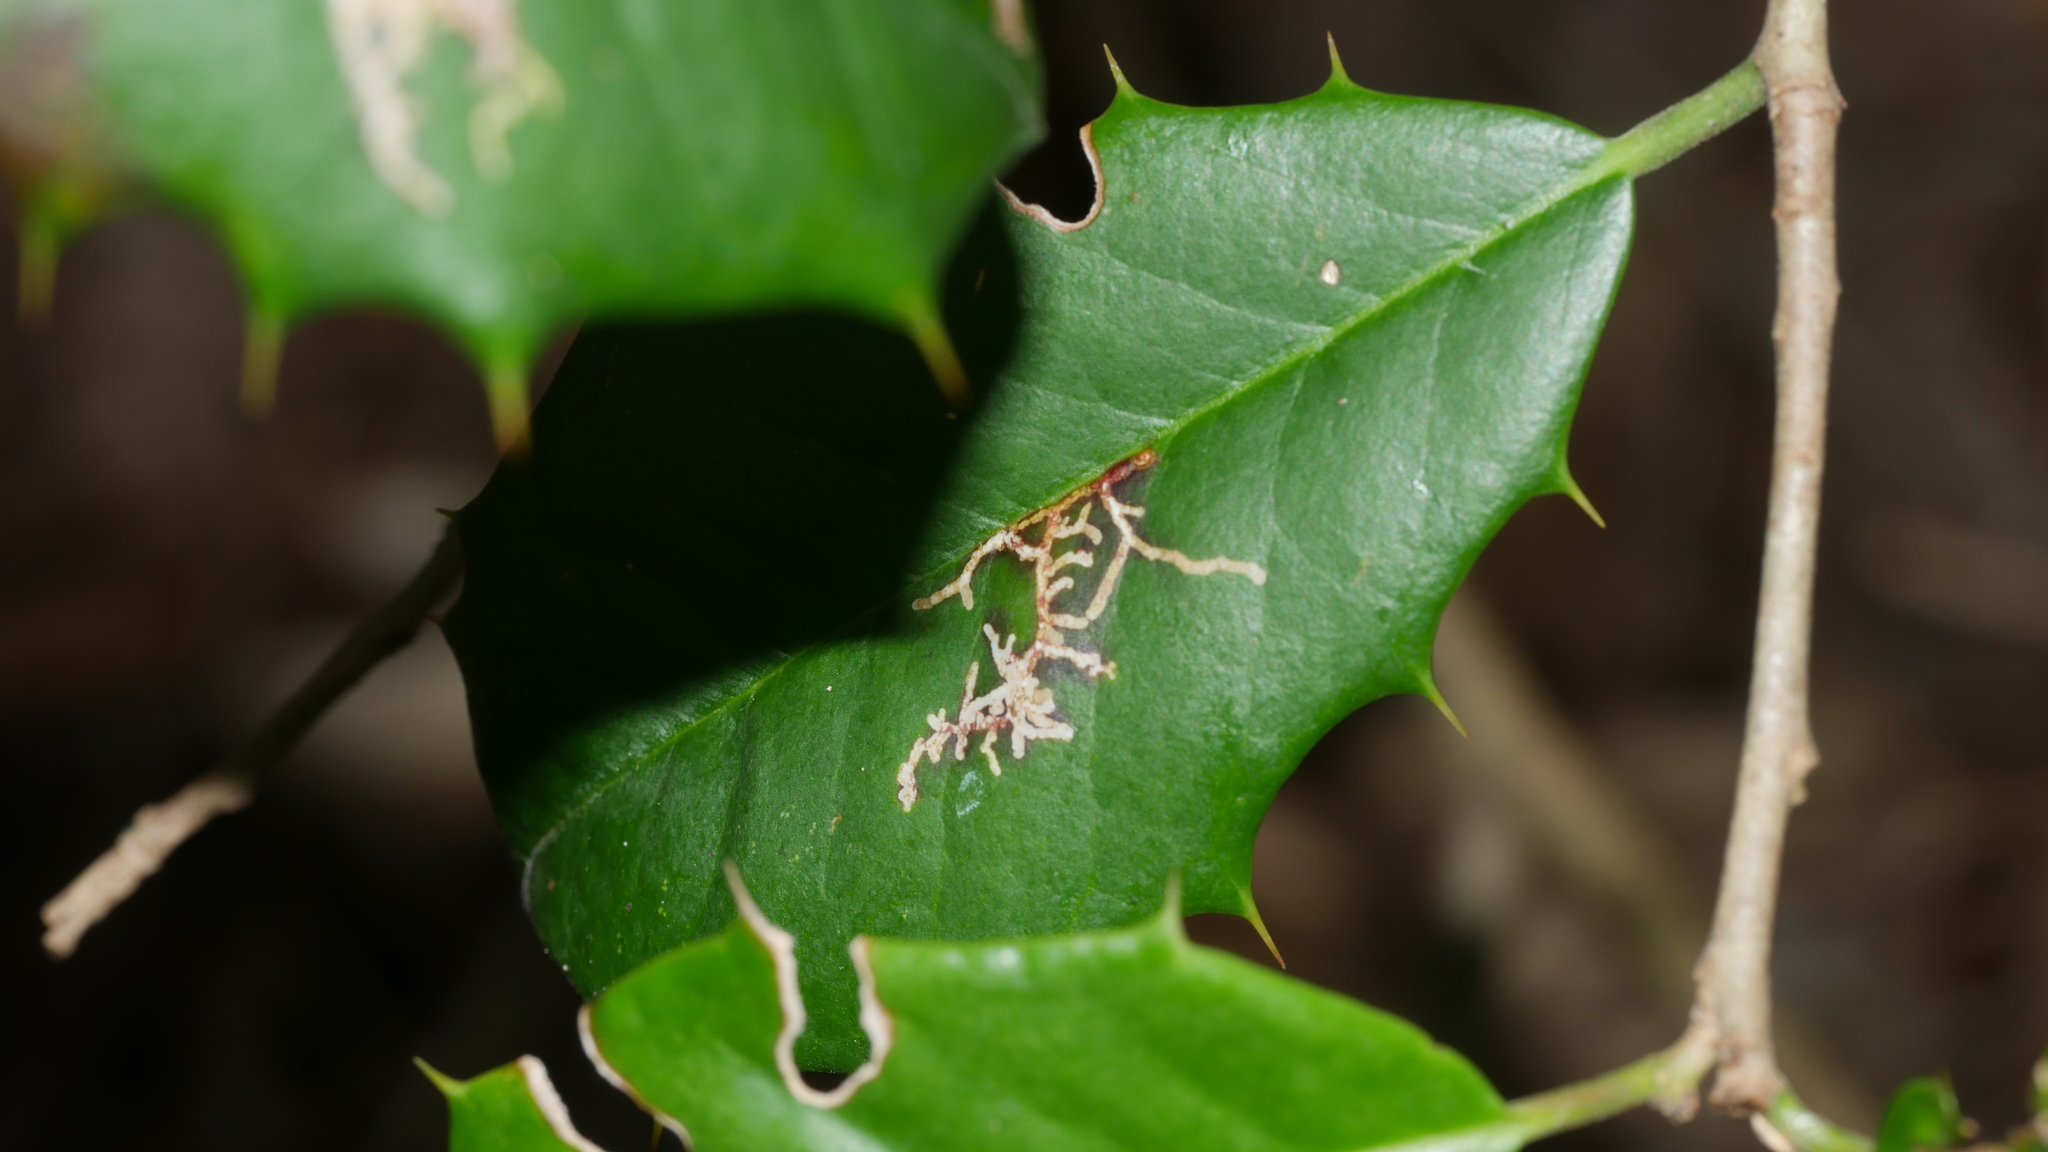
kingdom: Animalia
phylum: Arthropoda
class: Insecta
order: Lepidoptera
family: Tortricidae
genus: Rhopobota
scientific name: Rhopobota
